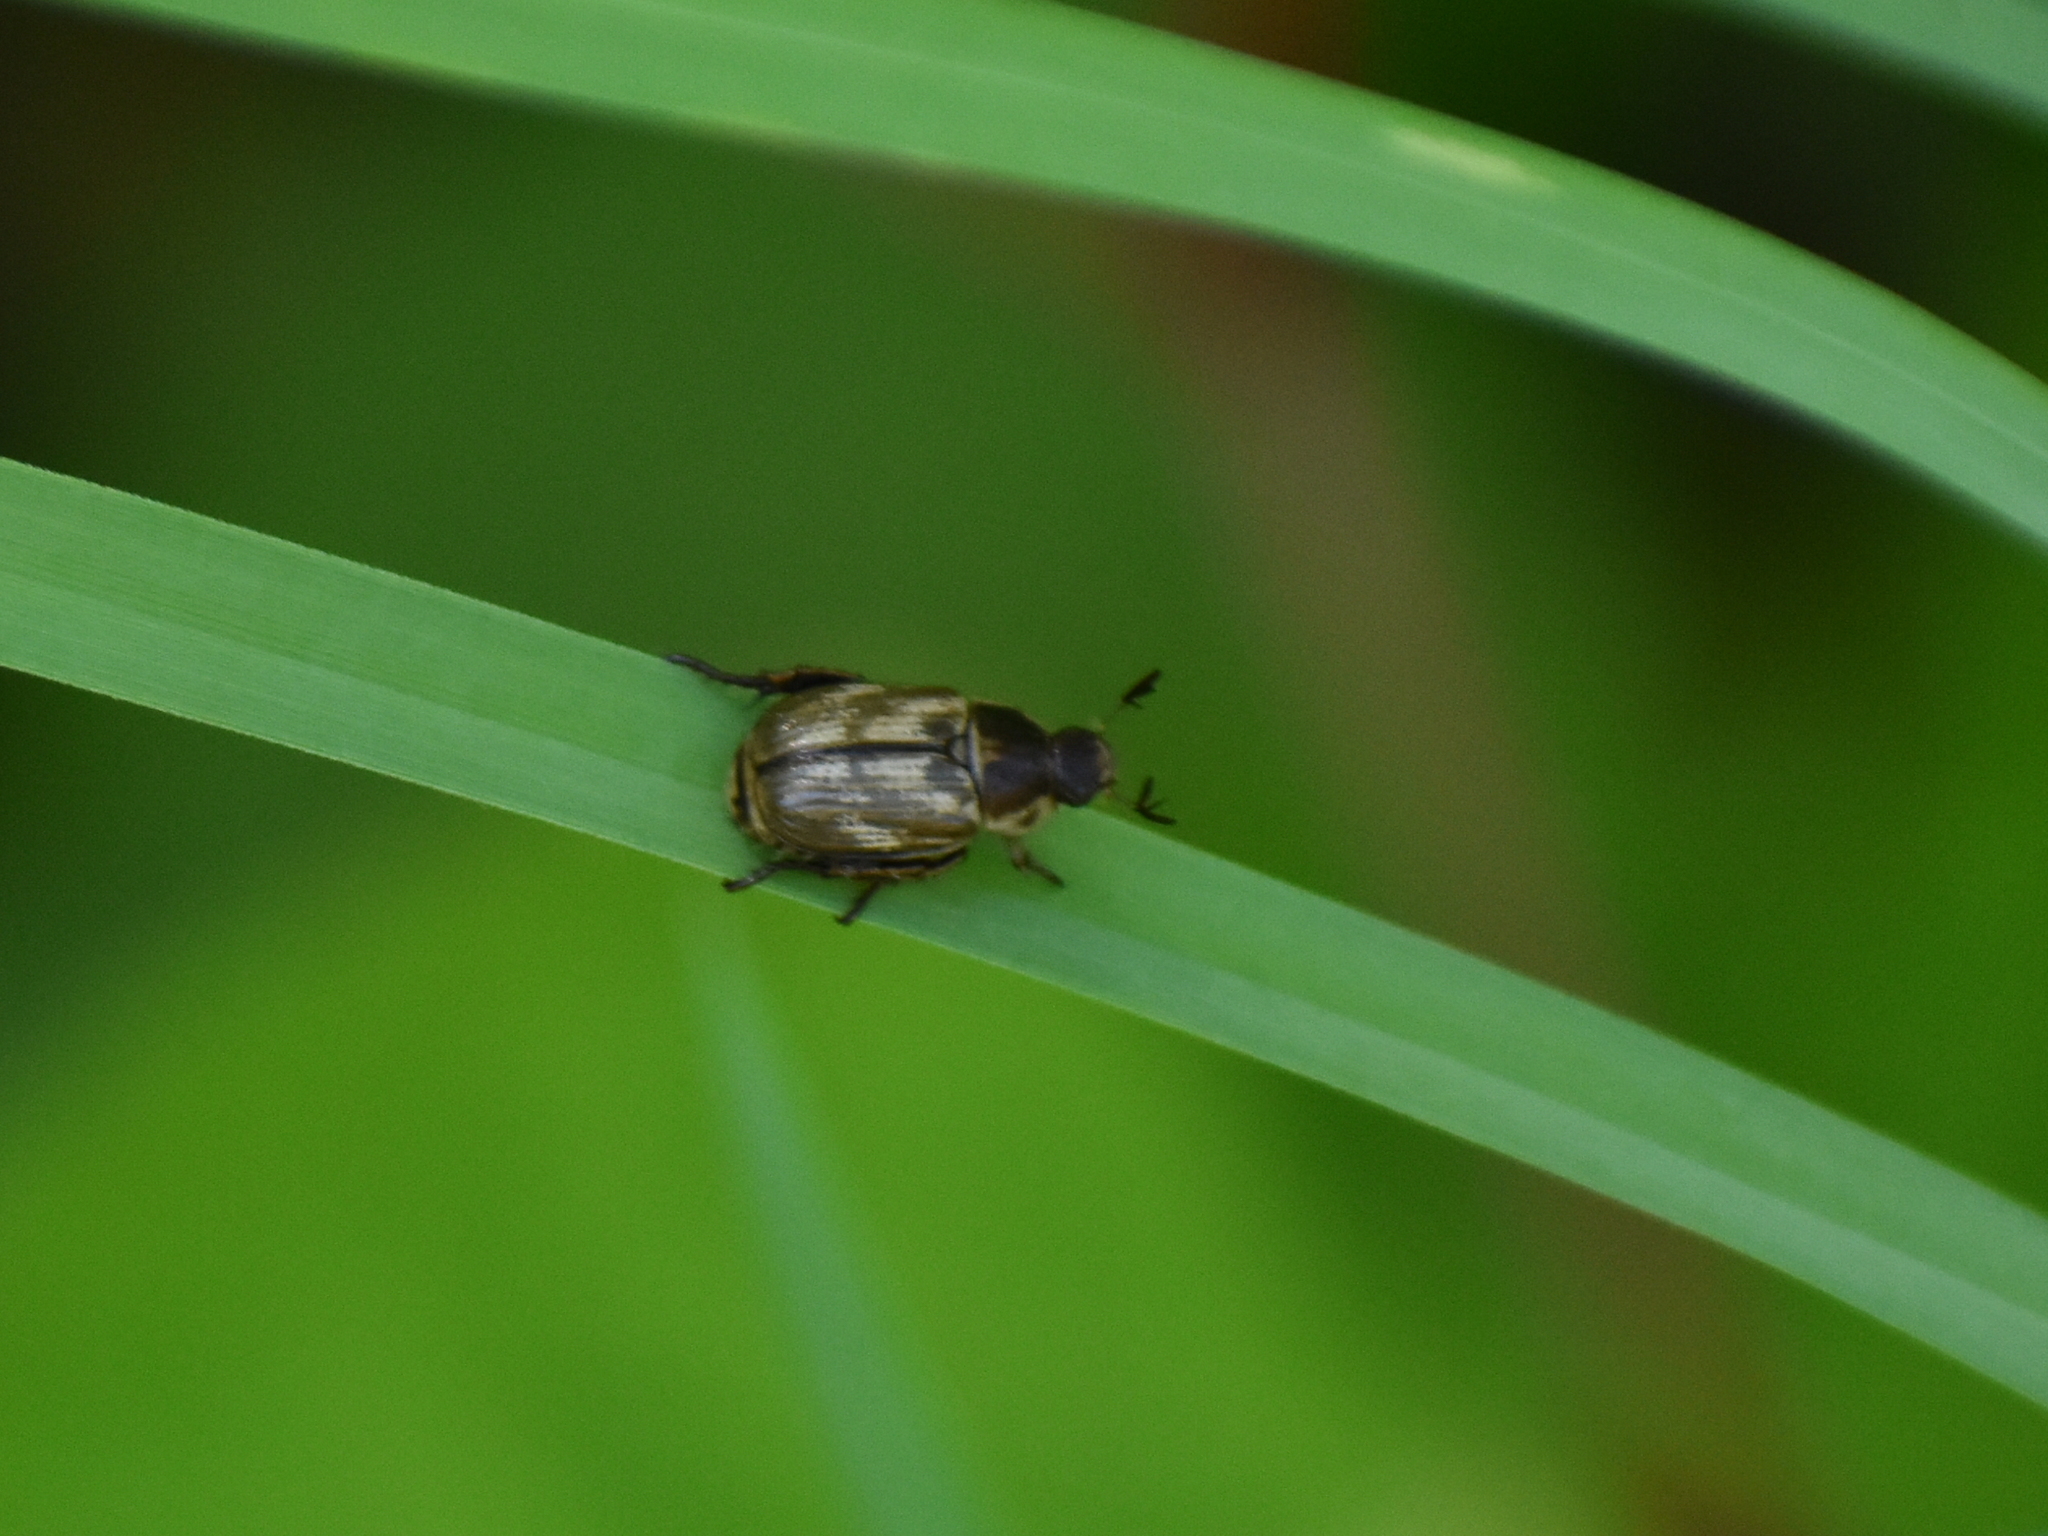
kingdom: Animalia
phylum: Arthropoda
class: Insecta
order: Coleoptera
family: Scarabaeidae
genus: Exomala
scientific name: Exomala orientalis
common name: Oriental beetle
